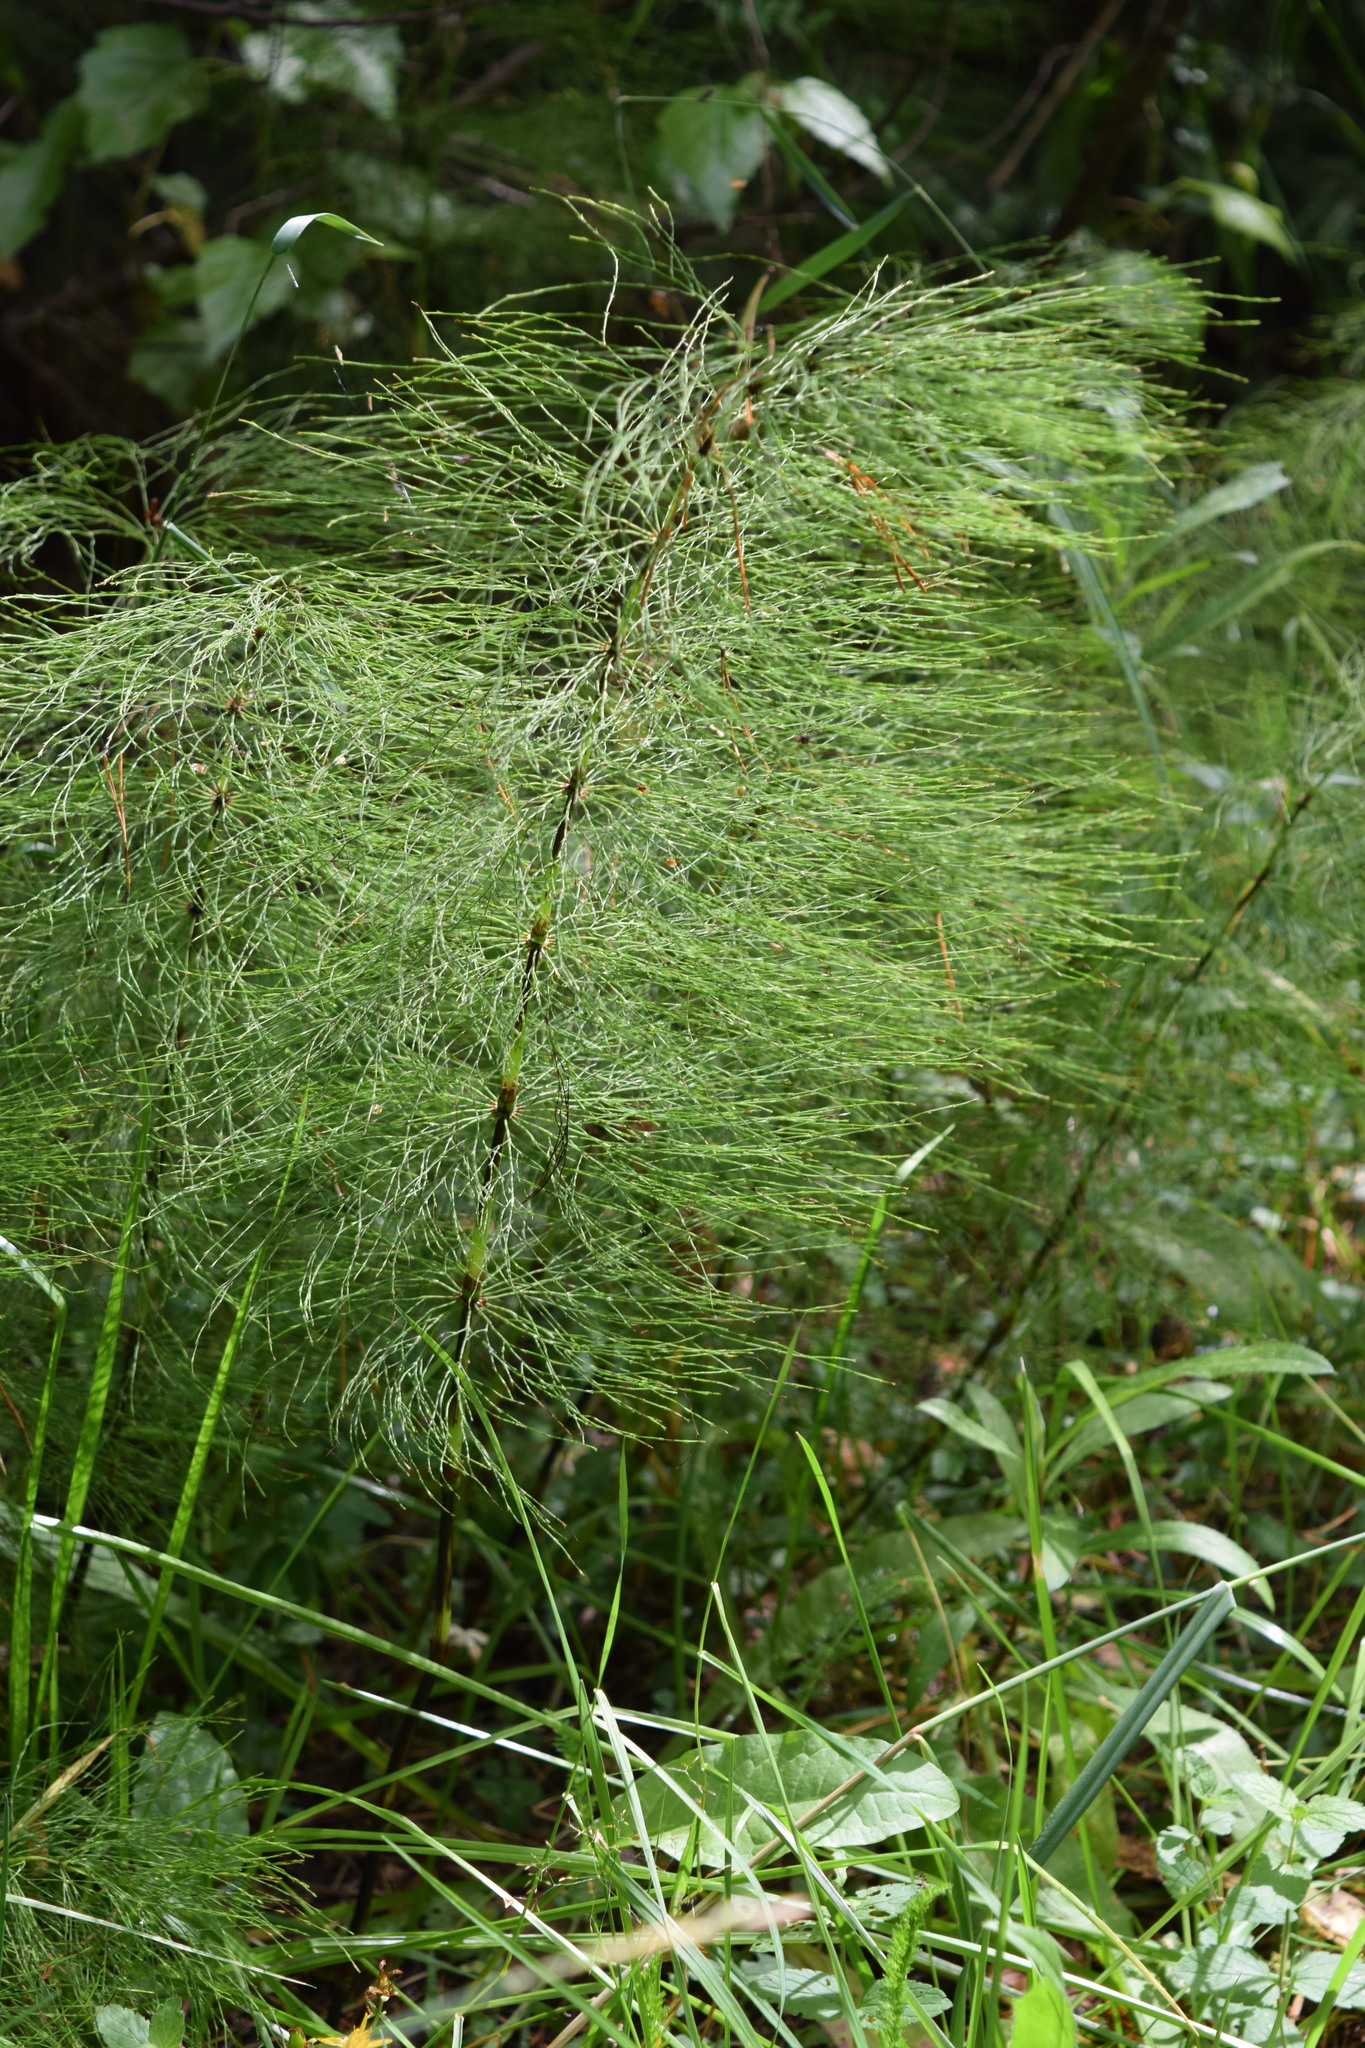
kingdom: Plantae
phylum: Tracheophyta
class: Polypodiopsida
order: Equisetales
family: Equisetaceae
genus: Equisetum
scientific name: Equisetum sylvaticum
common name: Wood horsetail
